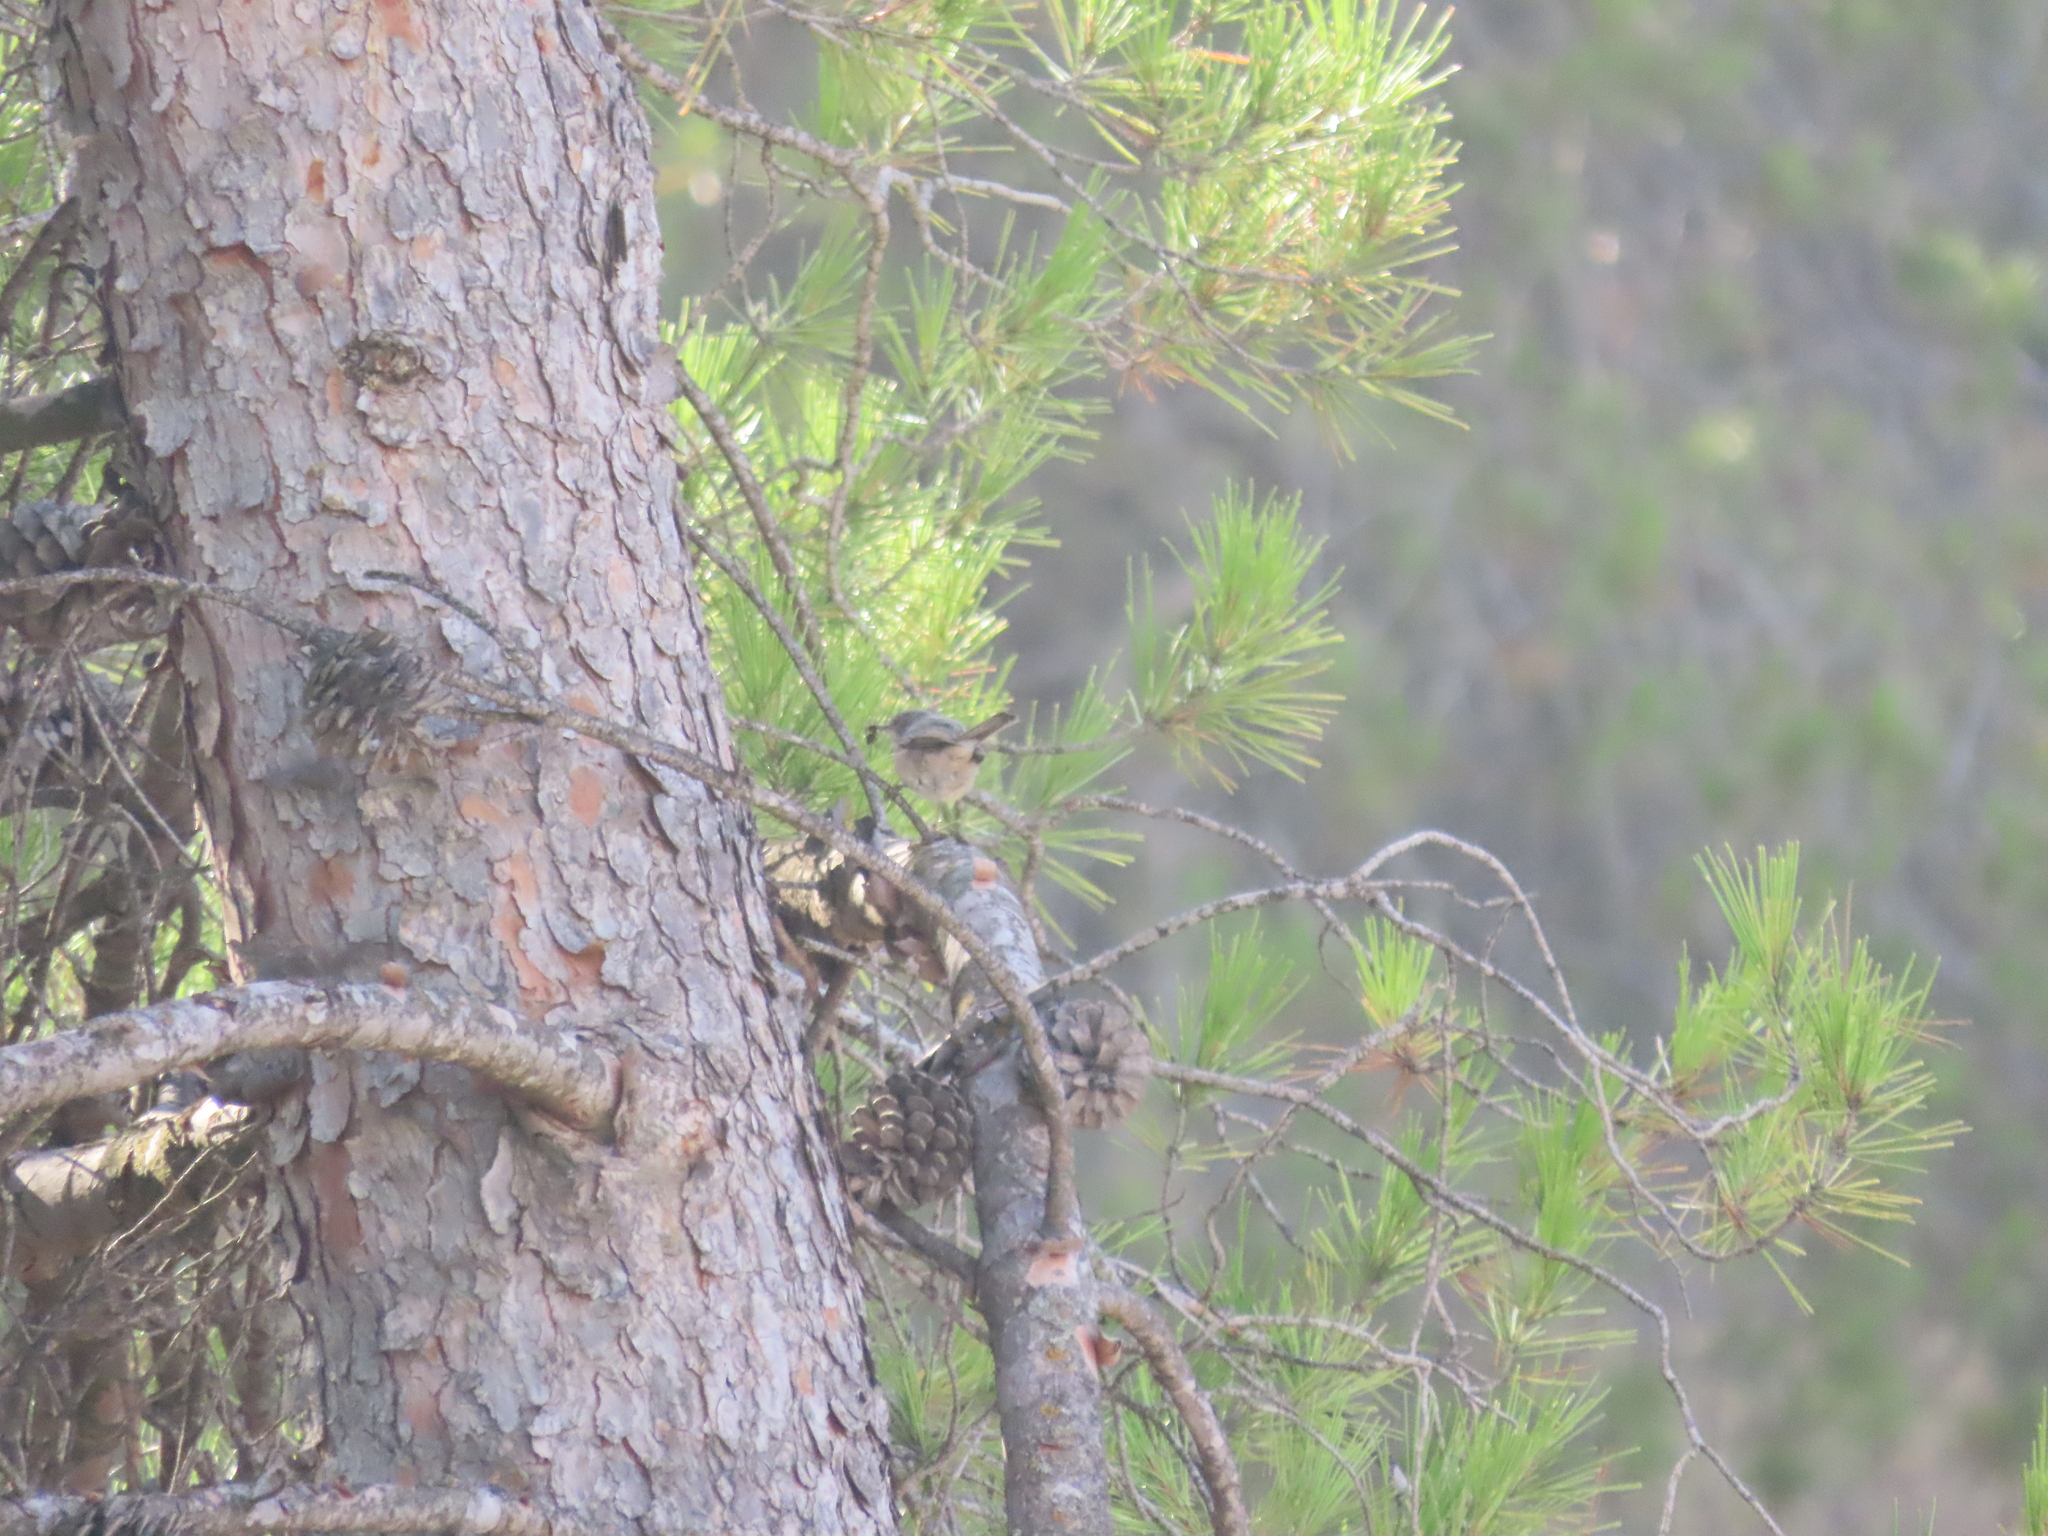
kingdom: Animalia
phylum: Chordata
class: Aves
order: Passeriformes
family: Sylviidae
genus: Curruca
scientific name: Curruca iberiae
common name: Western subalpine warbler
